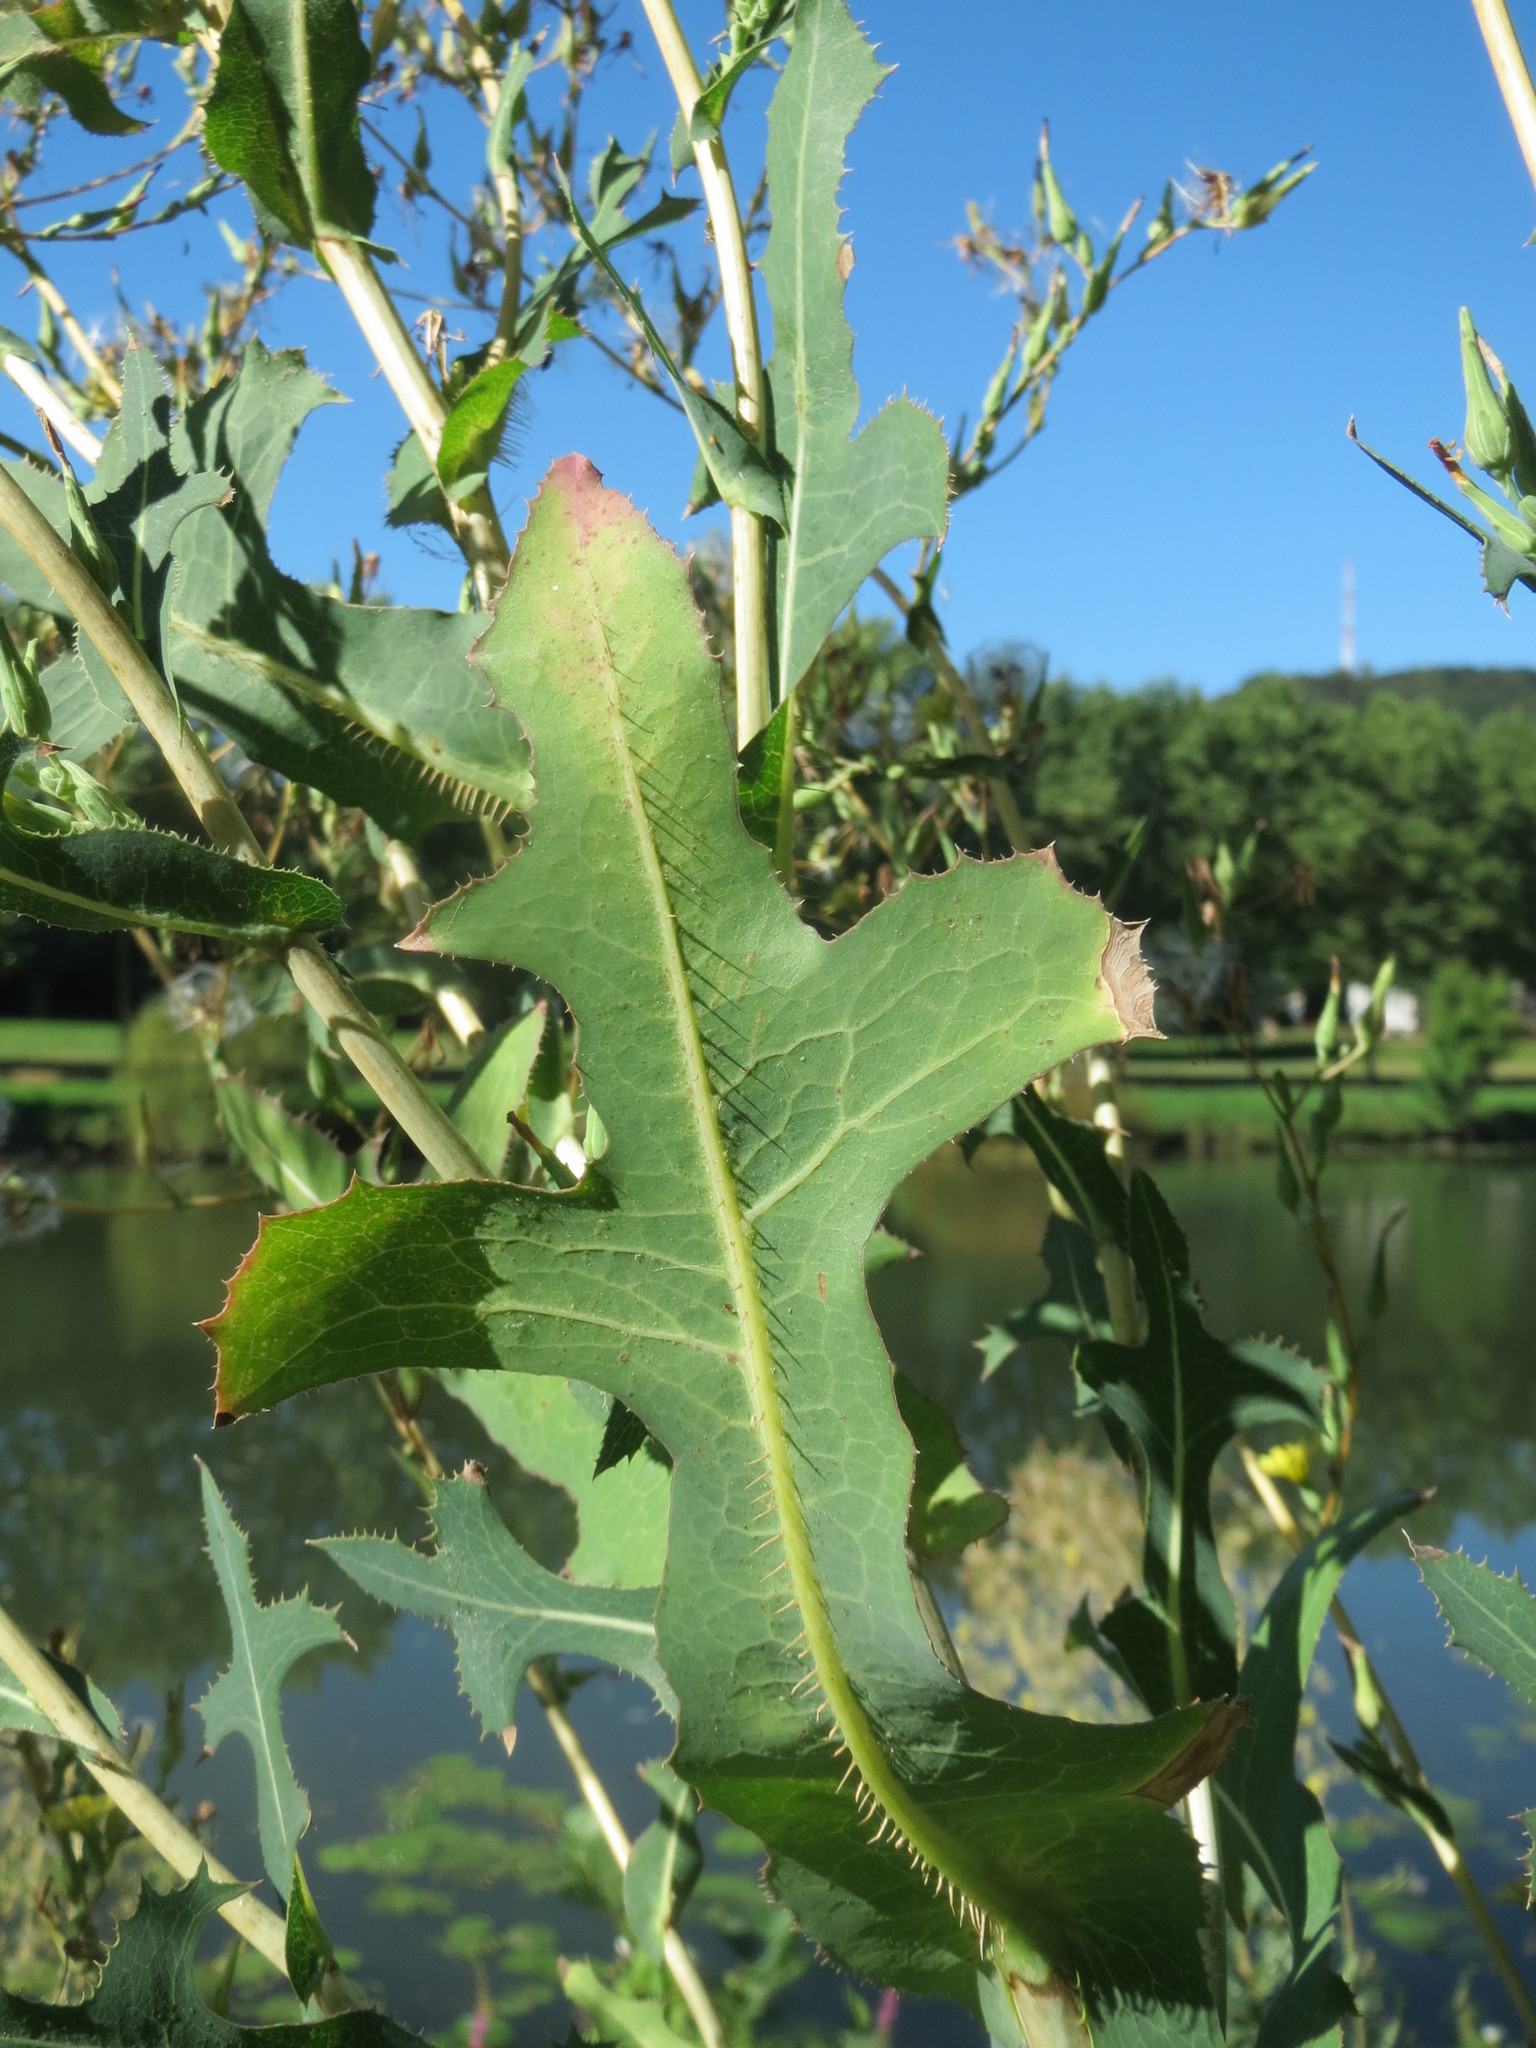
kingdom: Plantae
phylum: Tracheophyta
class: Magnoliopsida
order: Asterales
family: Asteraceae
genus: Lactuca
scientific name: Lactuca serriola
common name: Prickly lettuce
